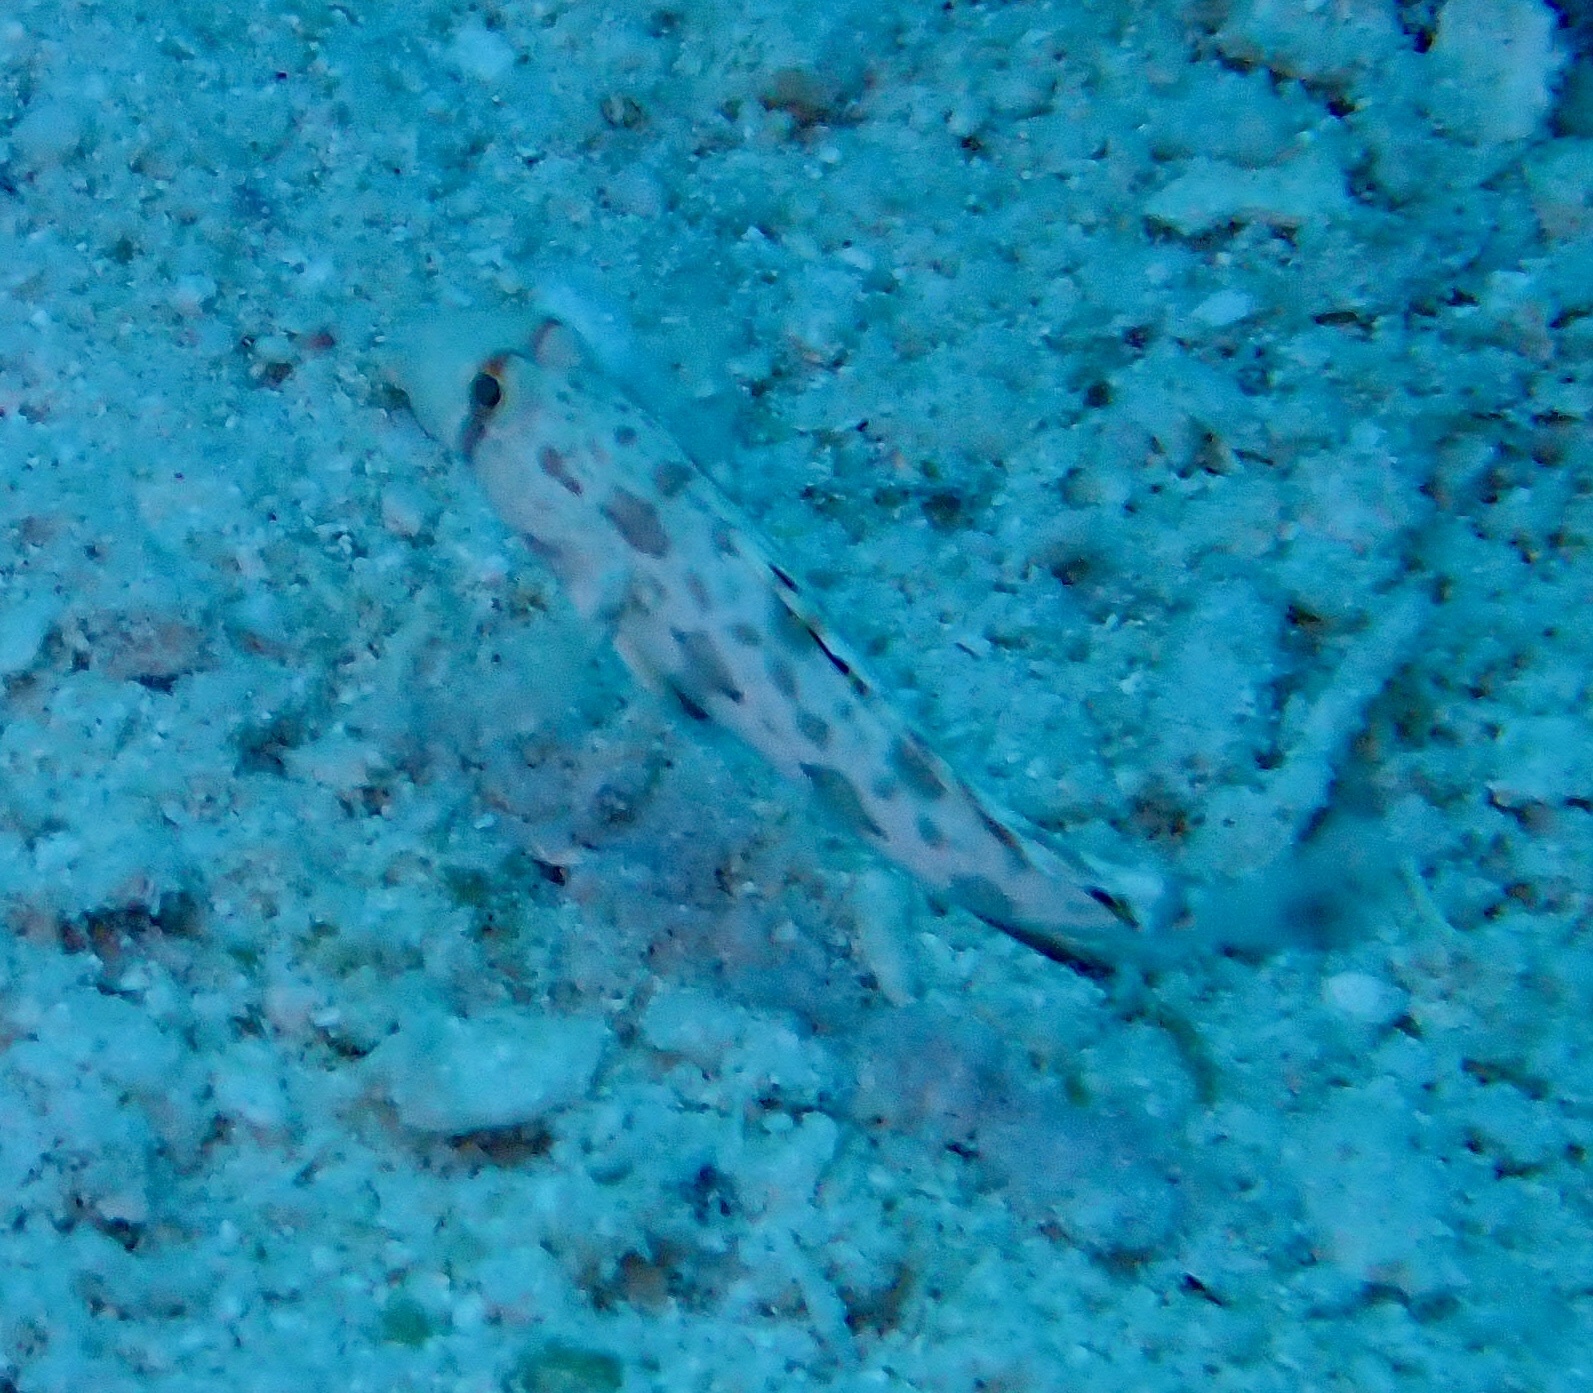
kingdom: Animalia
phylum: Chordata
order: Perciformes
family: Gobiidae
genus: Signigobius
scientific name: Signigobius biocellatus
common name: Crab-eye goby
